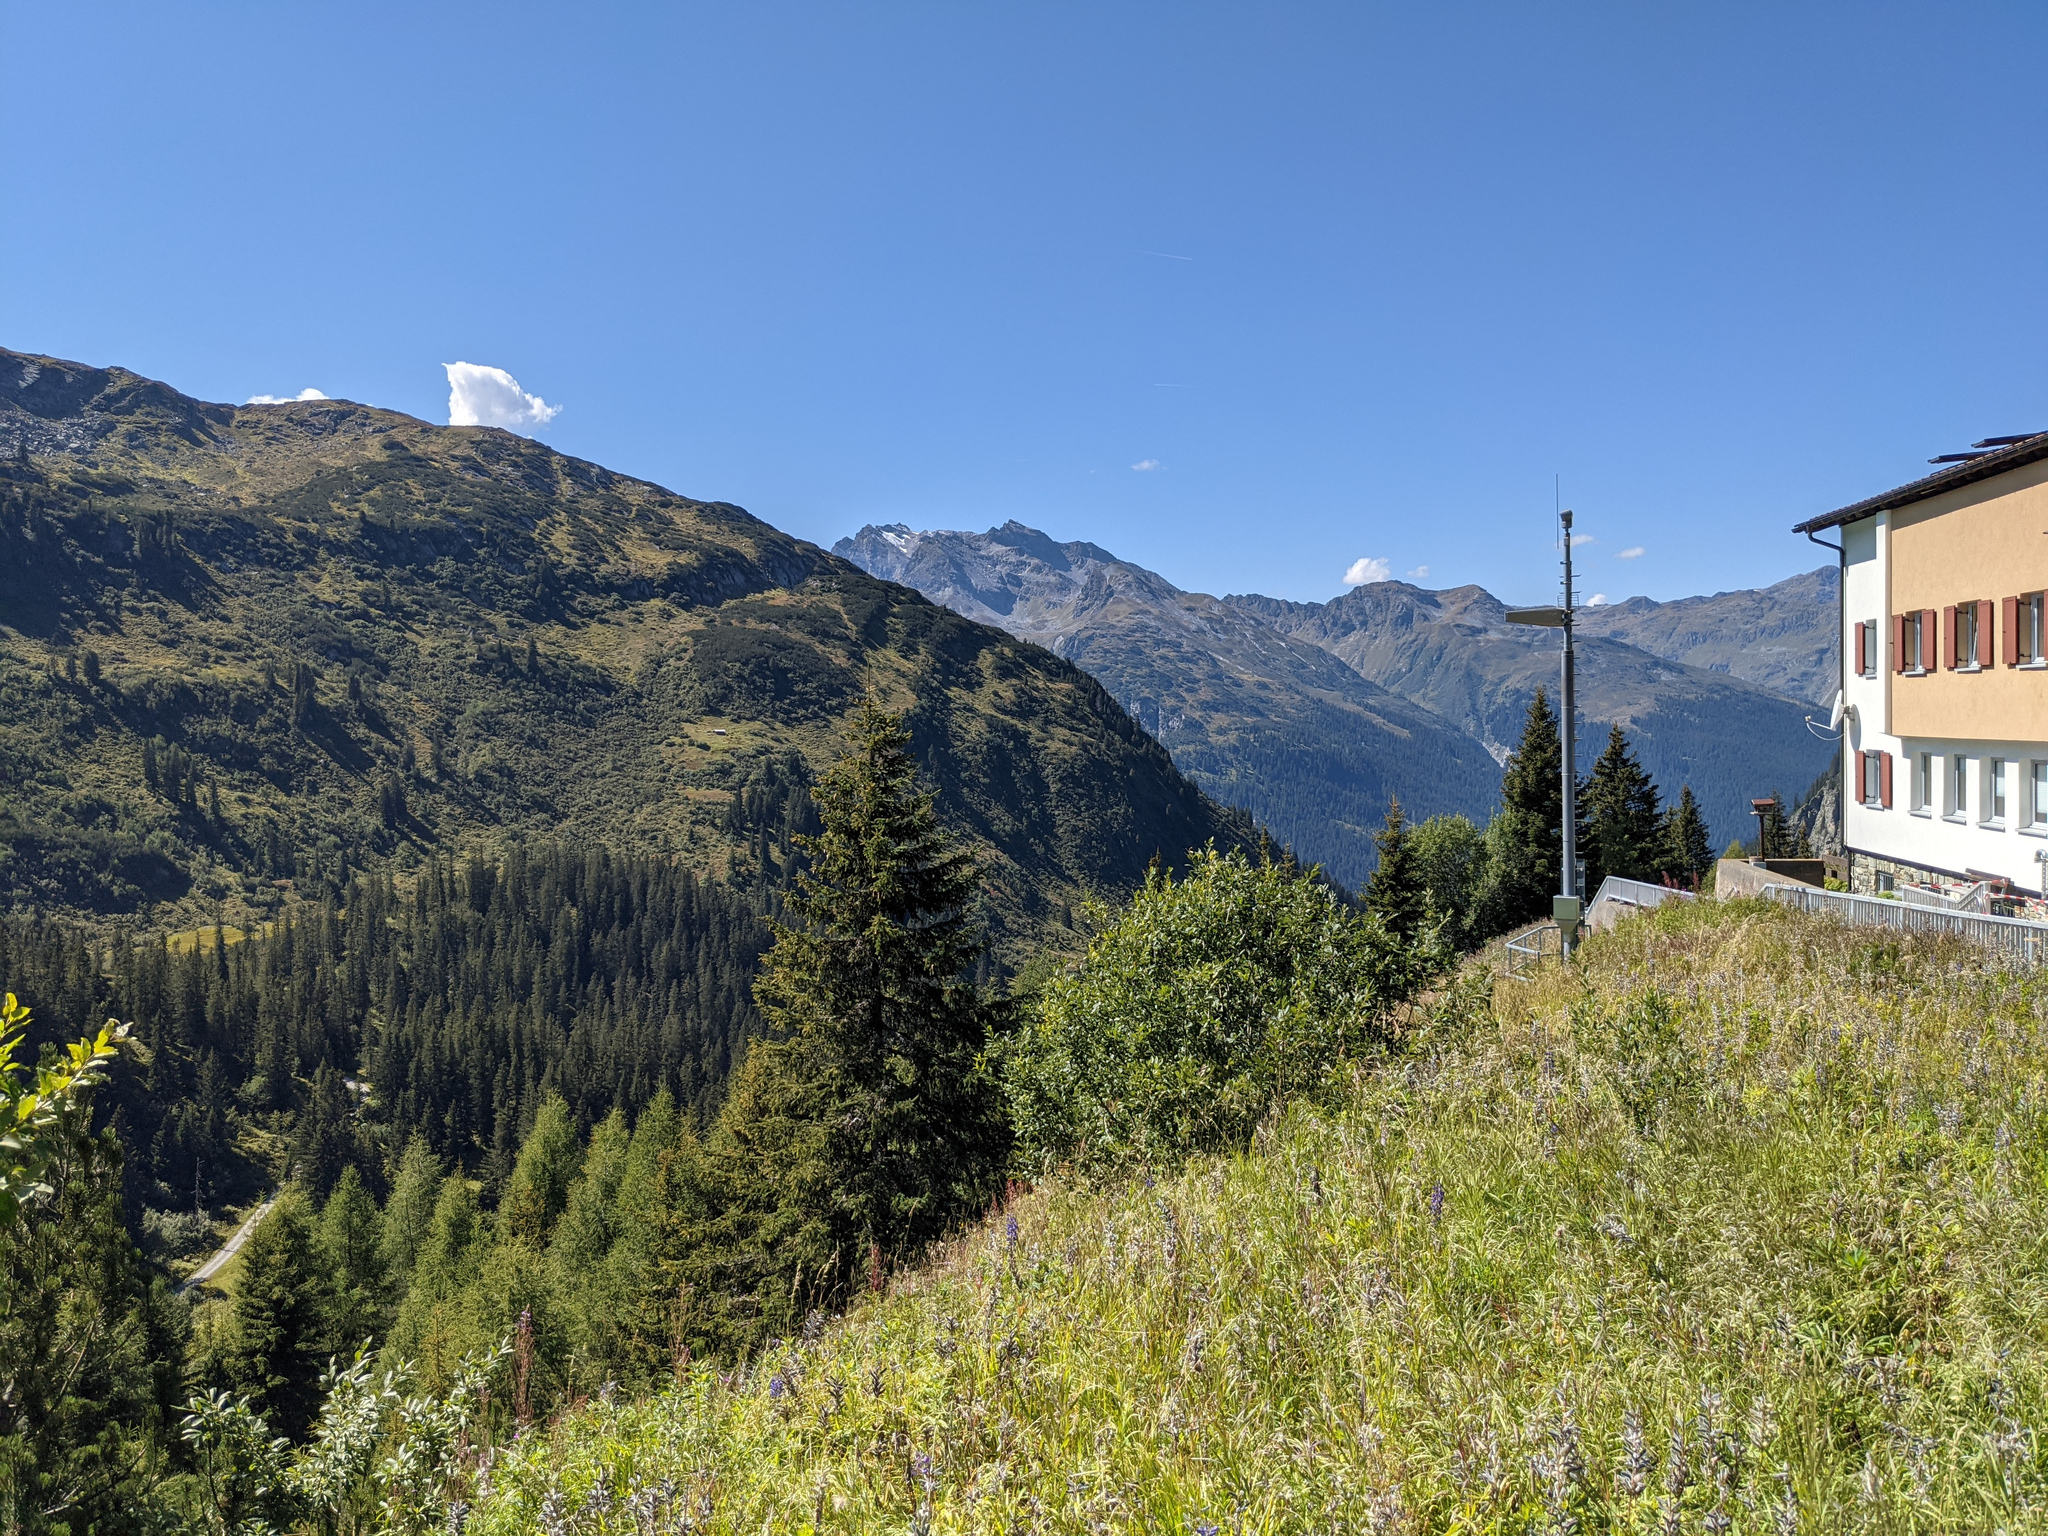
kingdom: Plantae
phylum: Tracheophyta
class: Pinopsida
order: Pinales
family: Pinaceae
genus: Picea
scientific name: Picea abies
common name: Norway spruce
